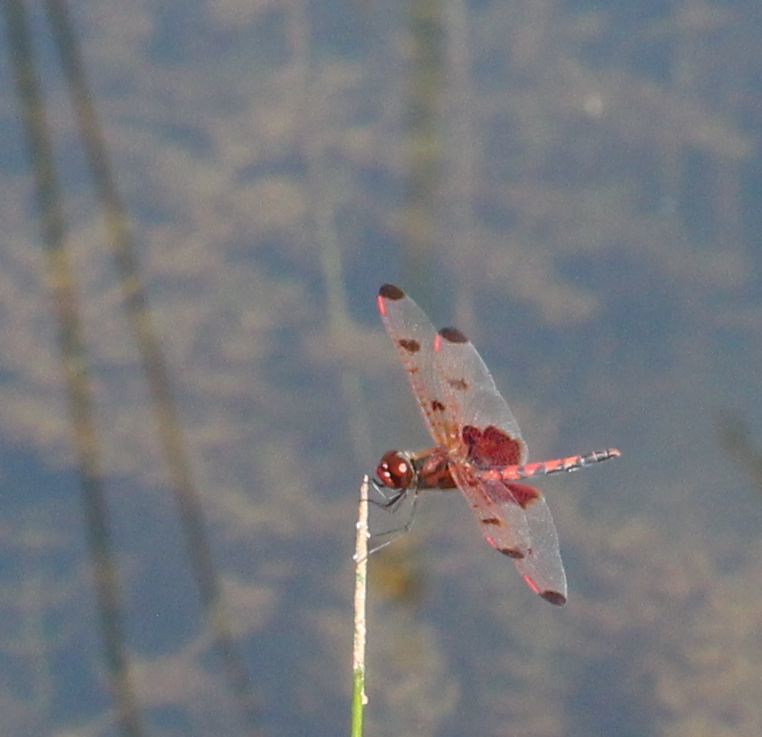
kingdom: Animalia
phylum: Arthropoda
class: Insecta
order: Odonata
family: Libellulidae
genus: Celithemis
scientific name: Celithemis elisa
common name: Calico pennant
